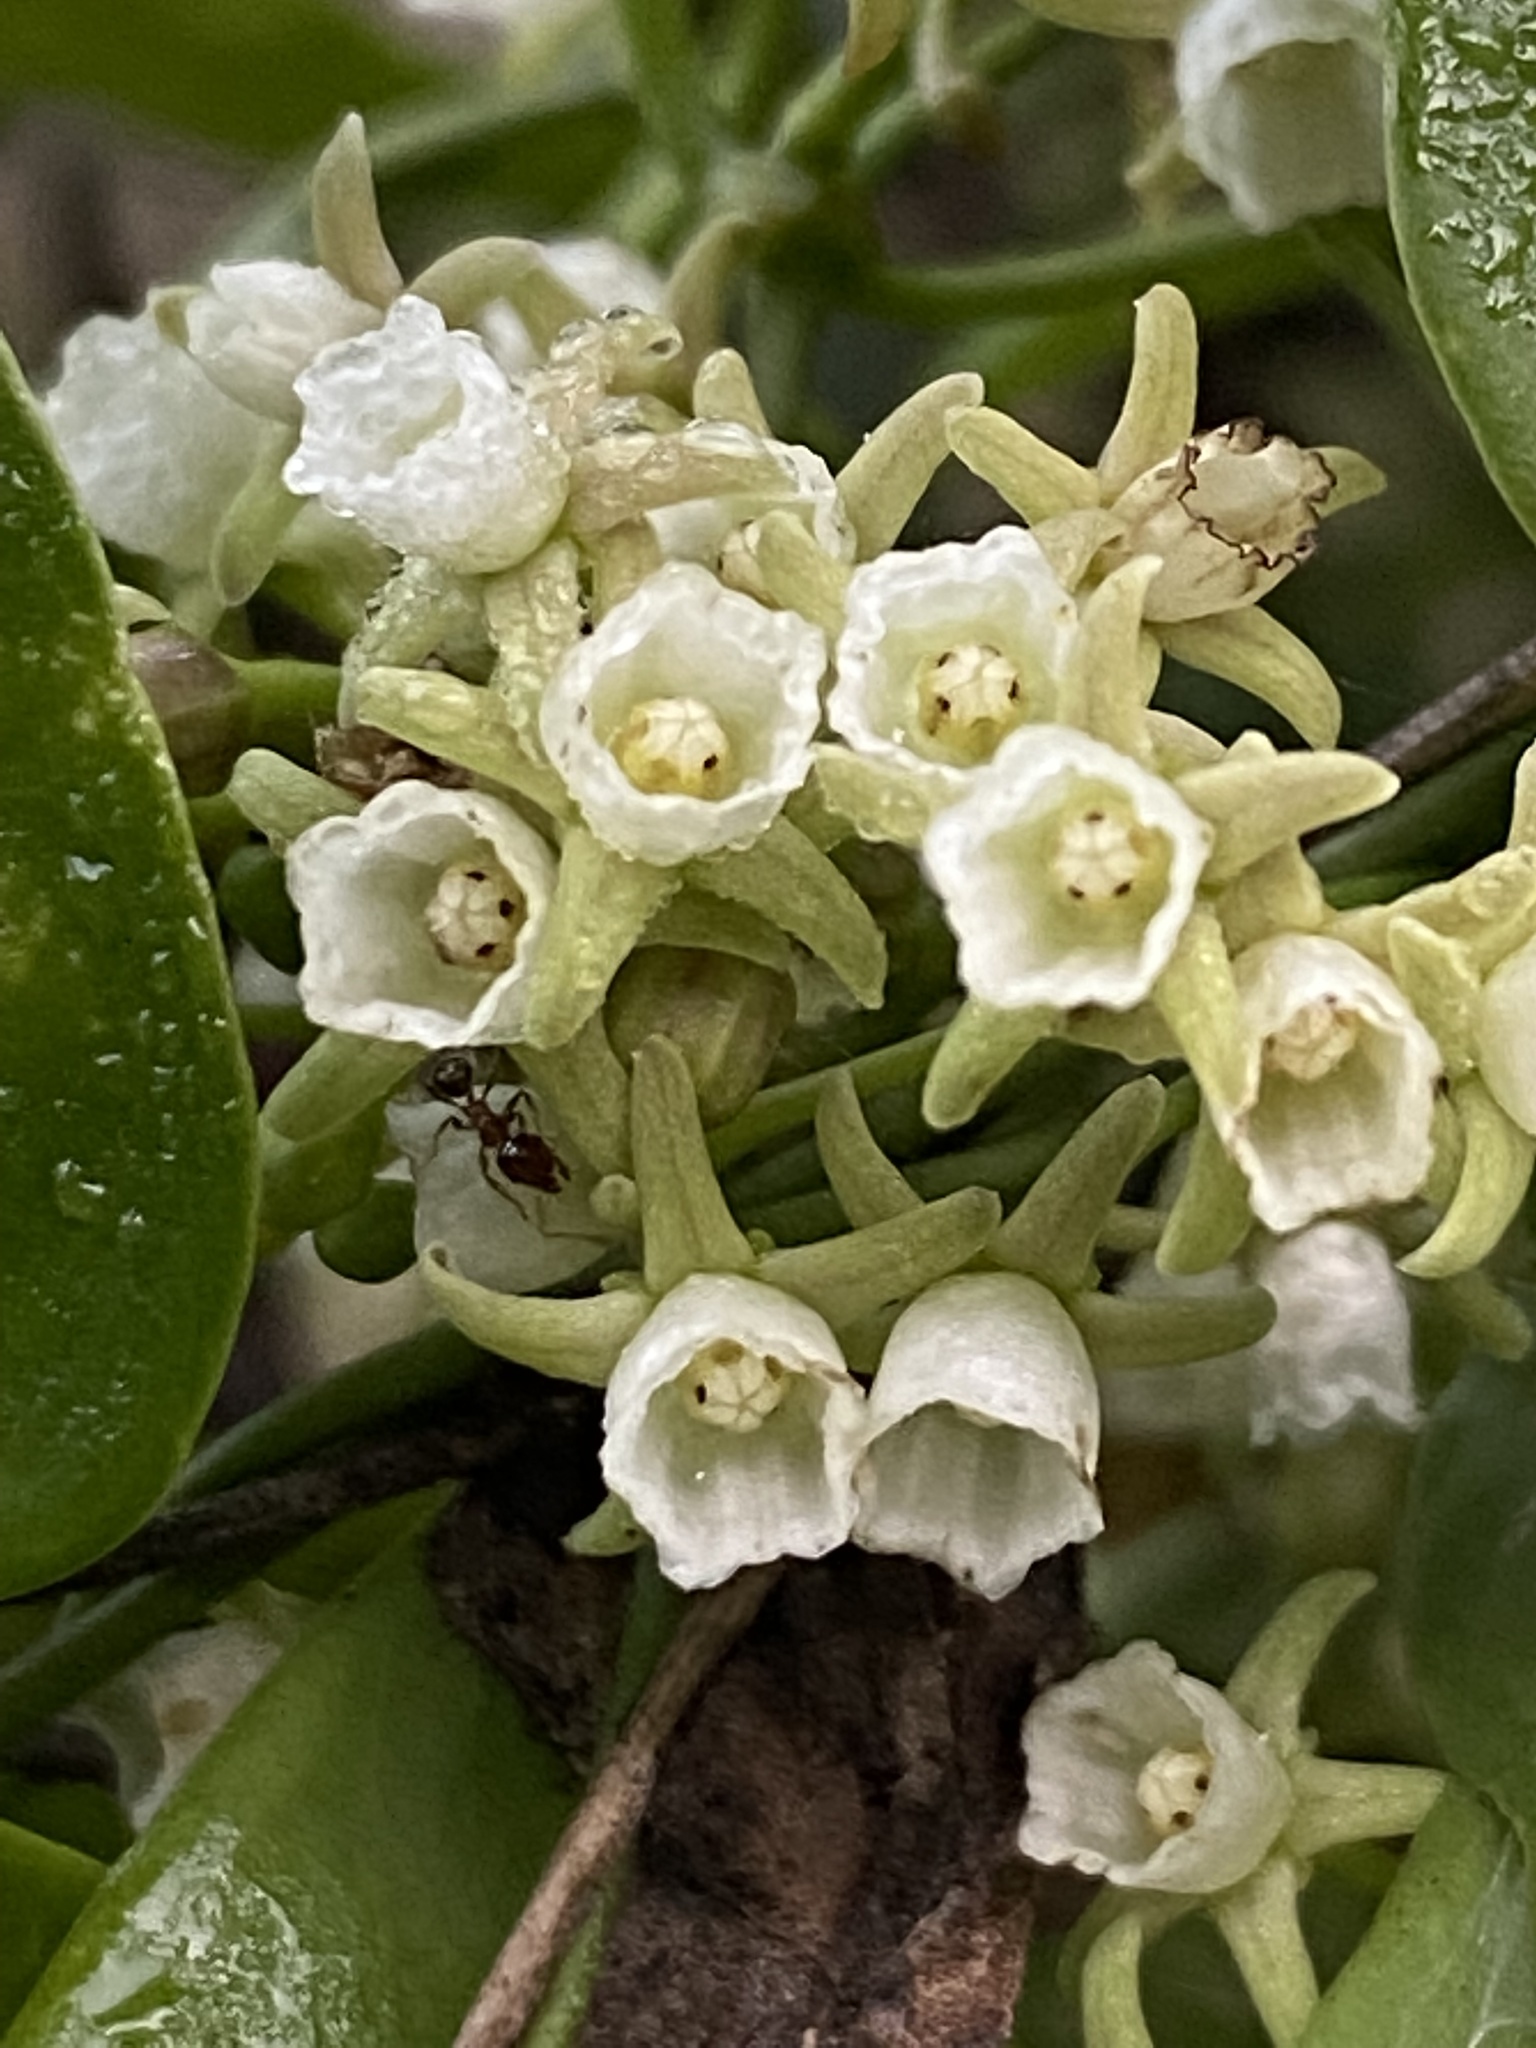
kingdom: Plantae
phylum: Tracheophyta
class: Magnoliopsida
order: Gentianales
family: Apocynaceae
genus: Cynanchum
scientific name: Cynanchum ellipticum
